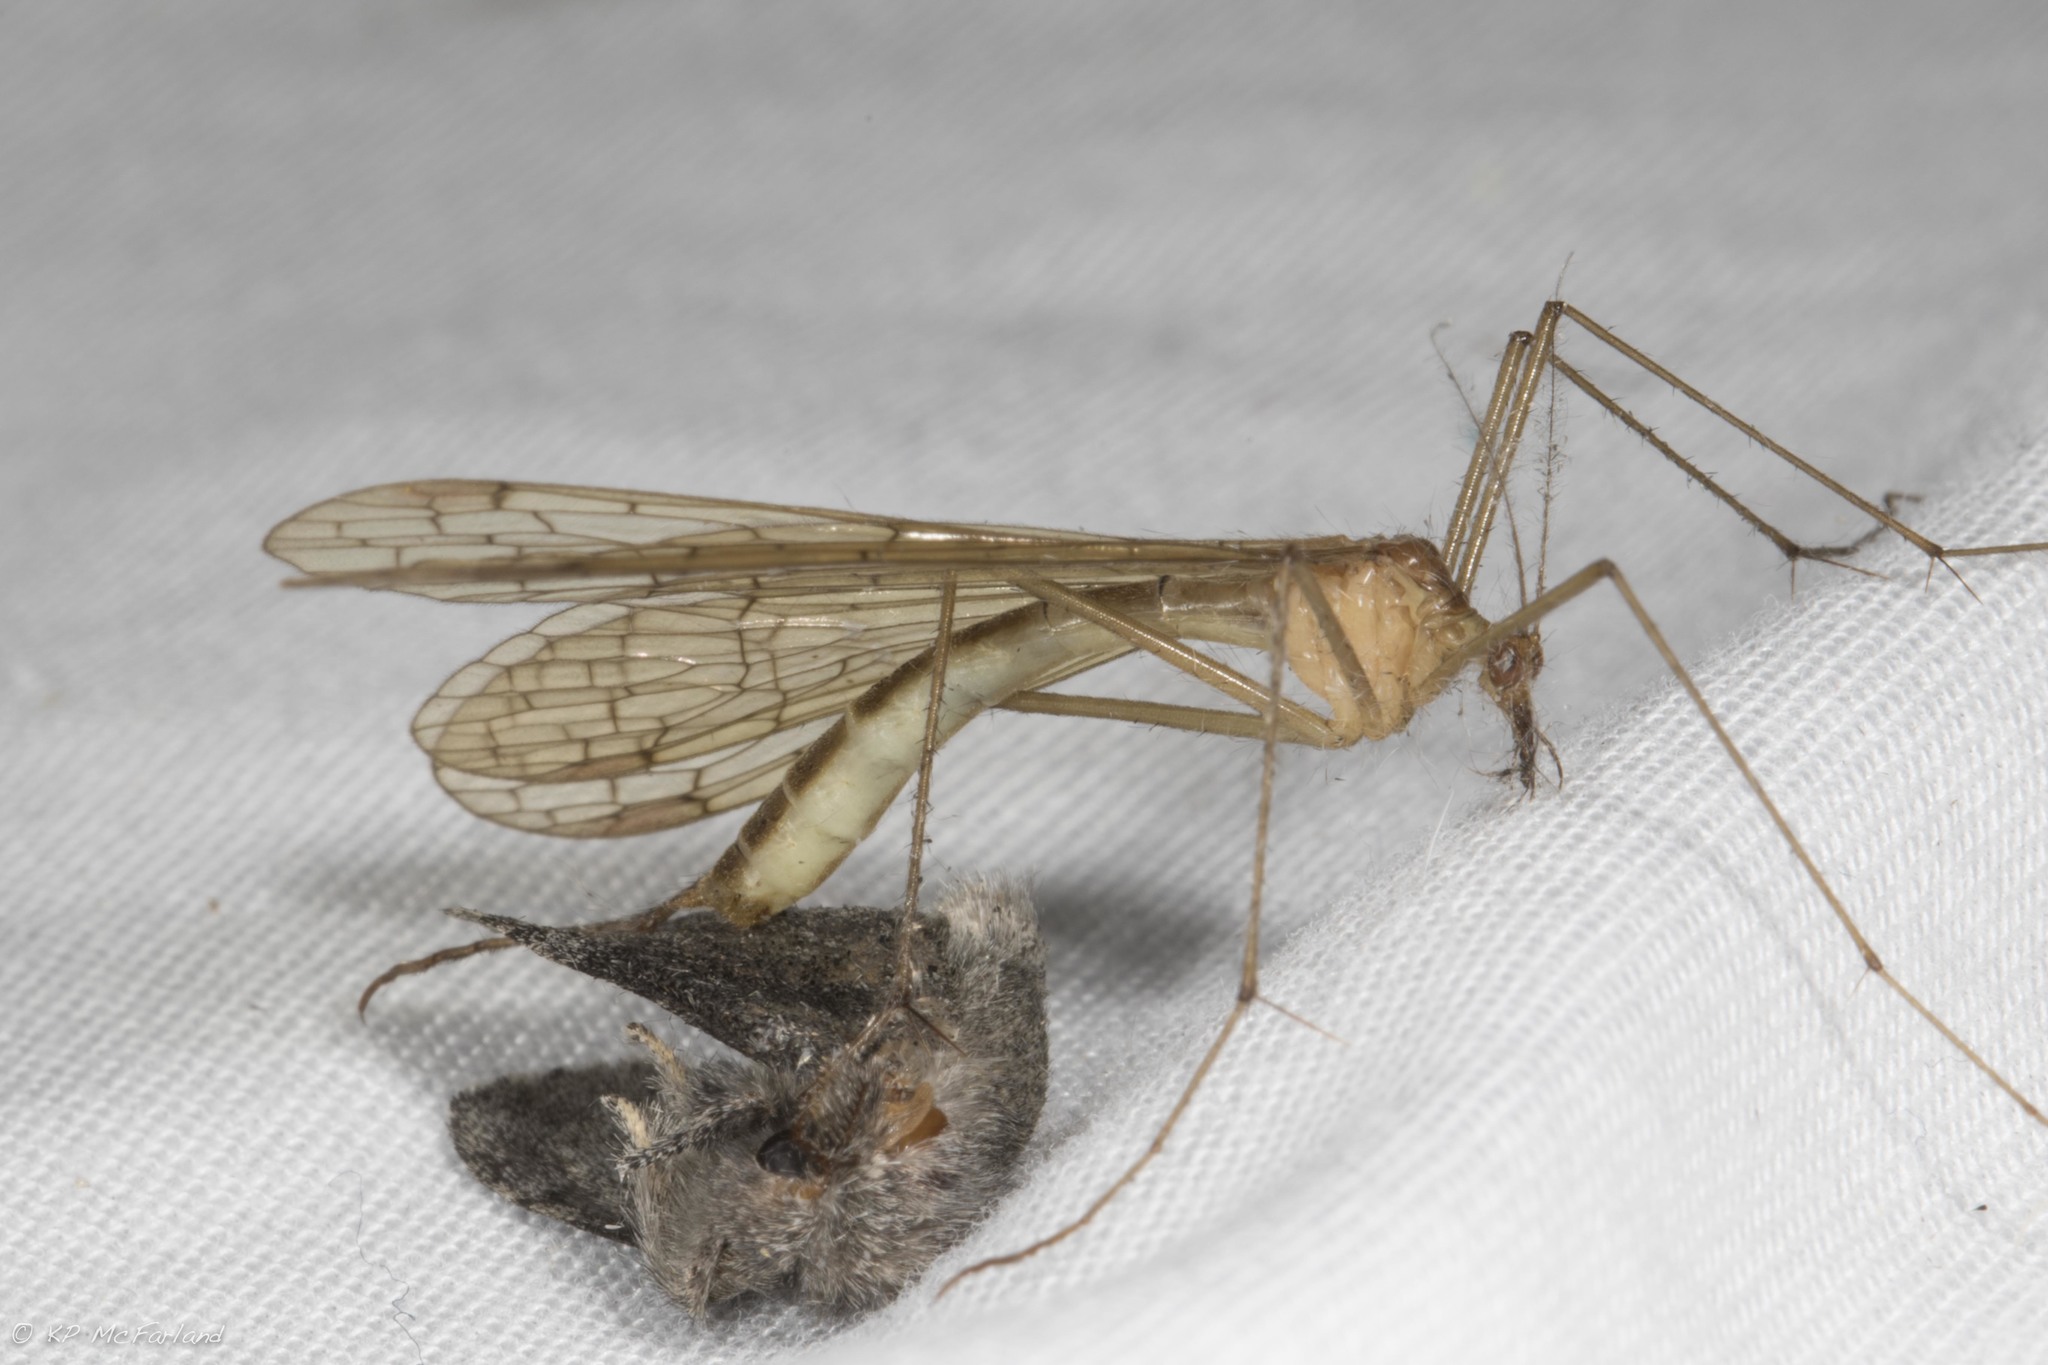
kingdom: Animalia
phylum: Arthropoda
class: Insecta
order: Mecoptera
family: Bittacidae
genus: Bittacus
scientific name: Bittacus pilicornis
